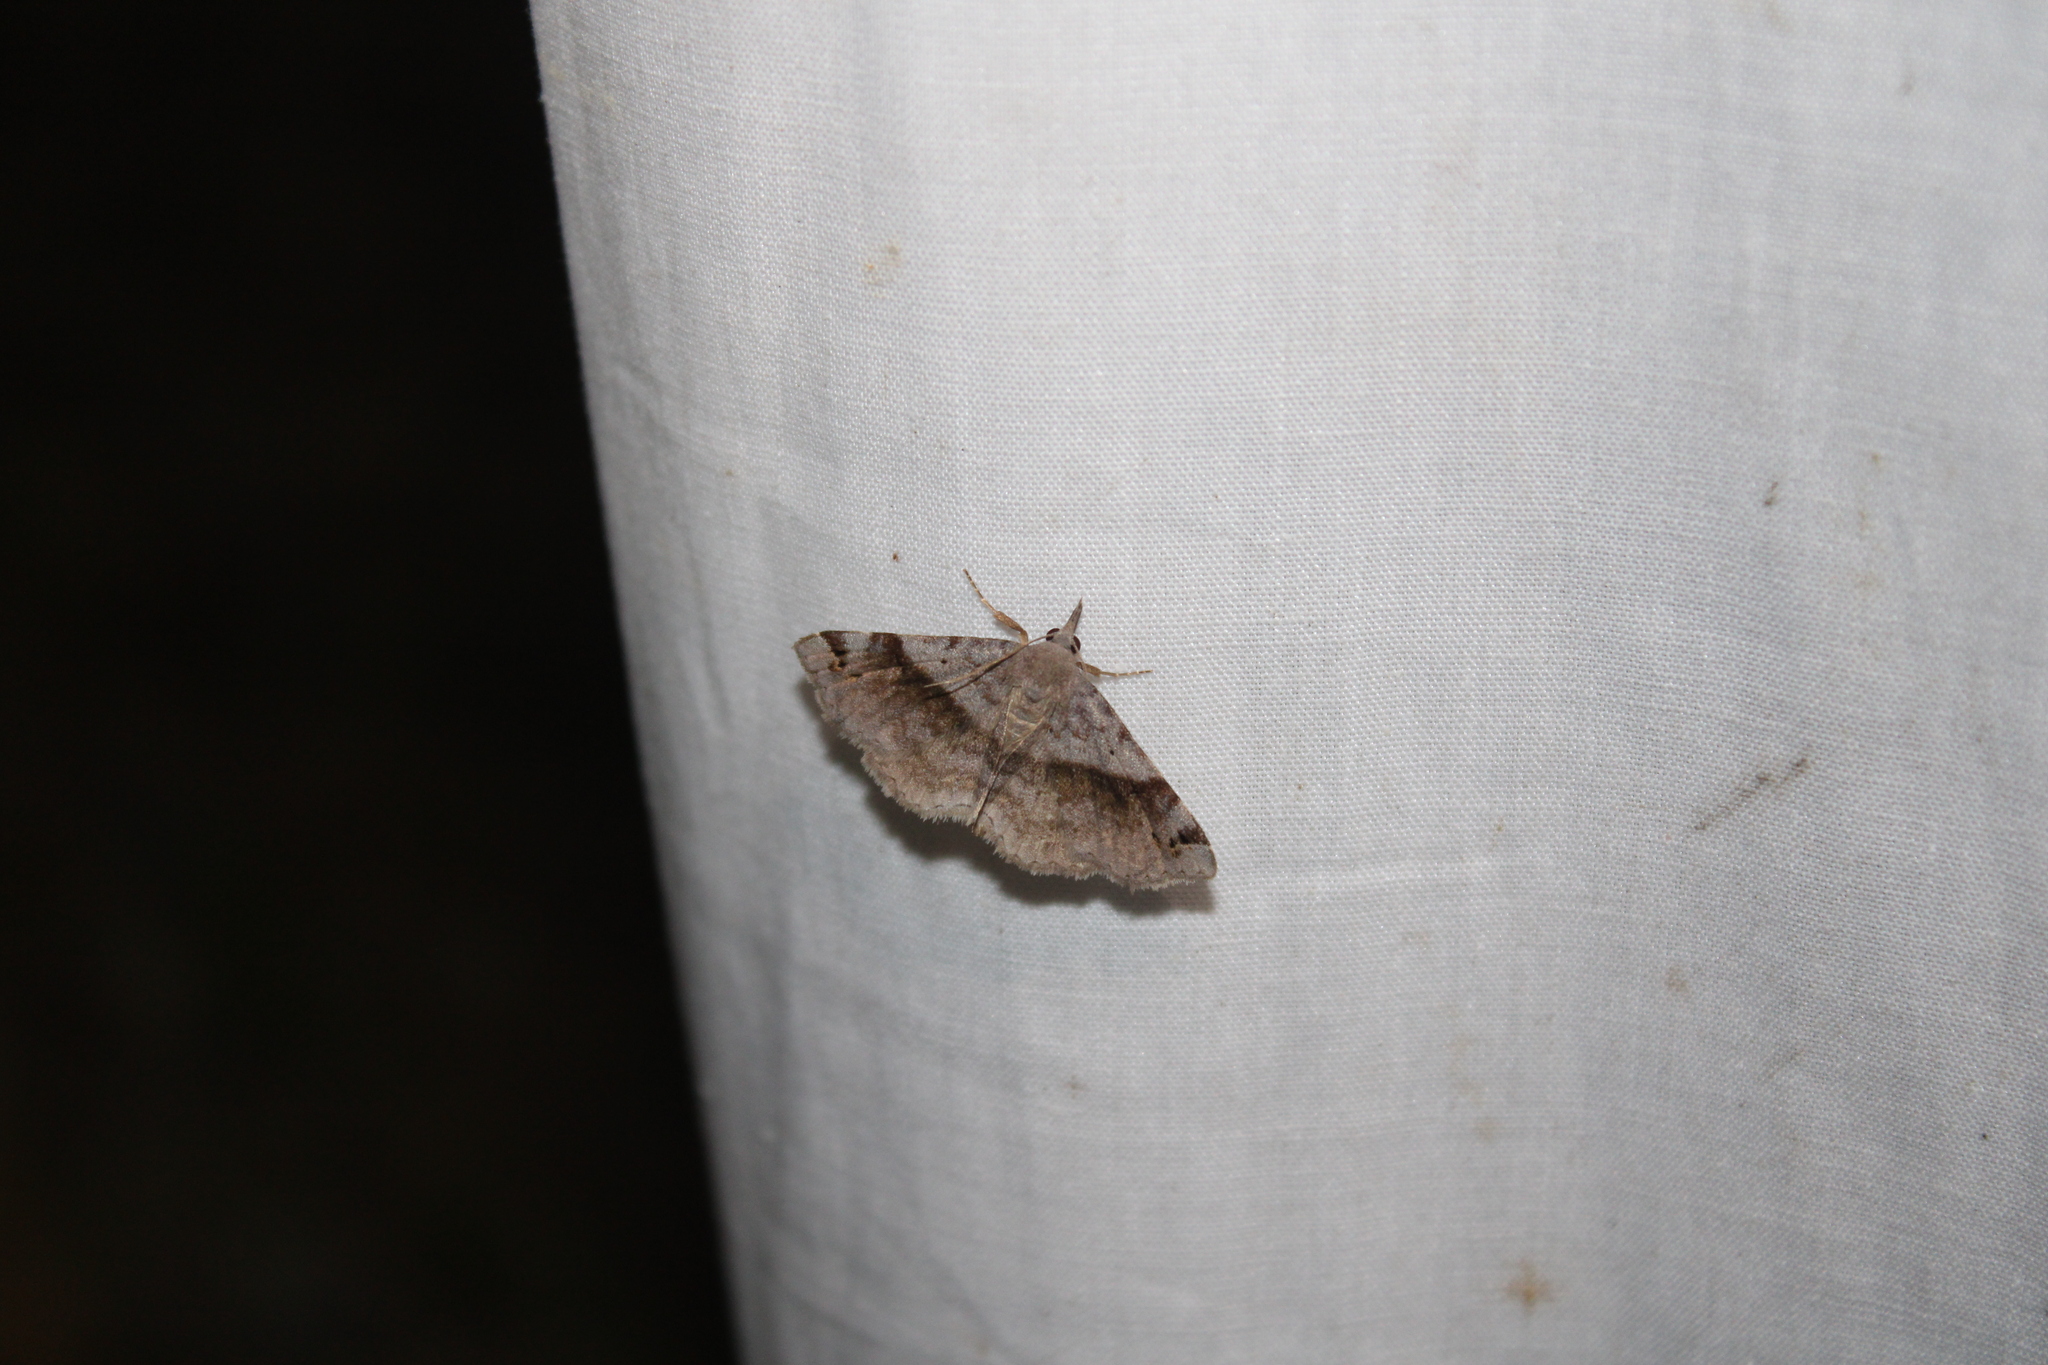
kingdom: Animalia
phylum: Arthropoda
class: Insecta
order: Lepidoptera
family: Erebidae
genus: Spargaloma
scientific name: Spargaloma sexpunctata
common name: Six-spotted gray
